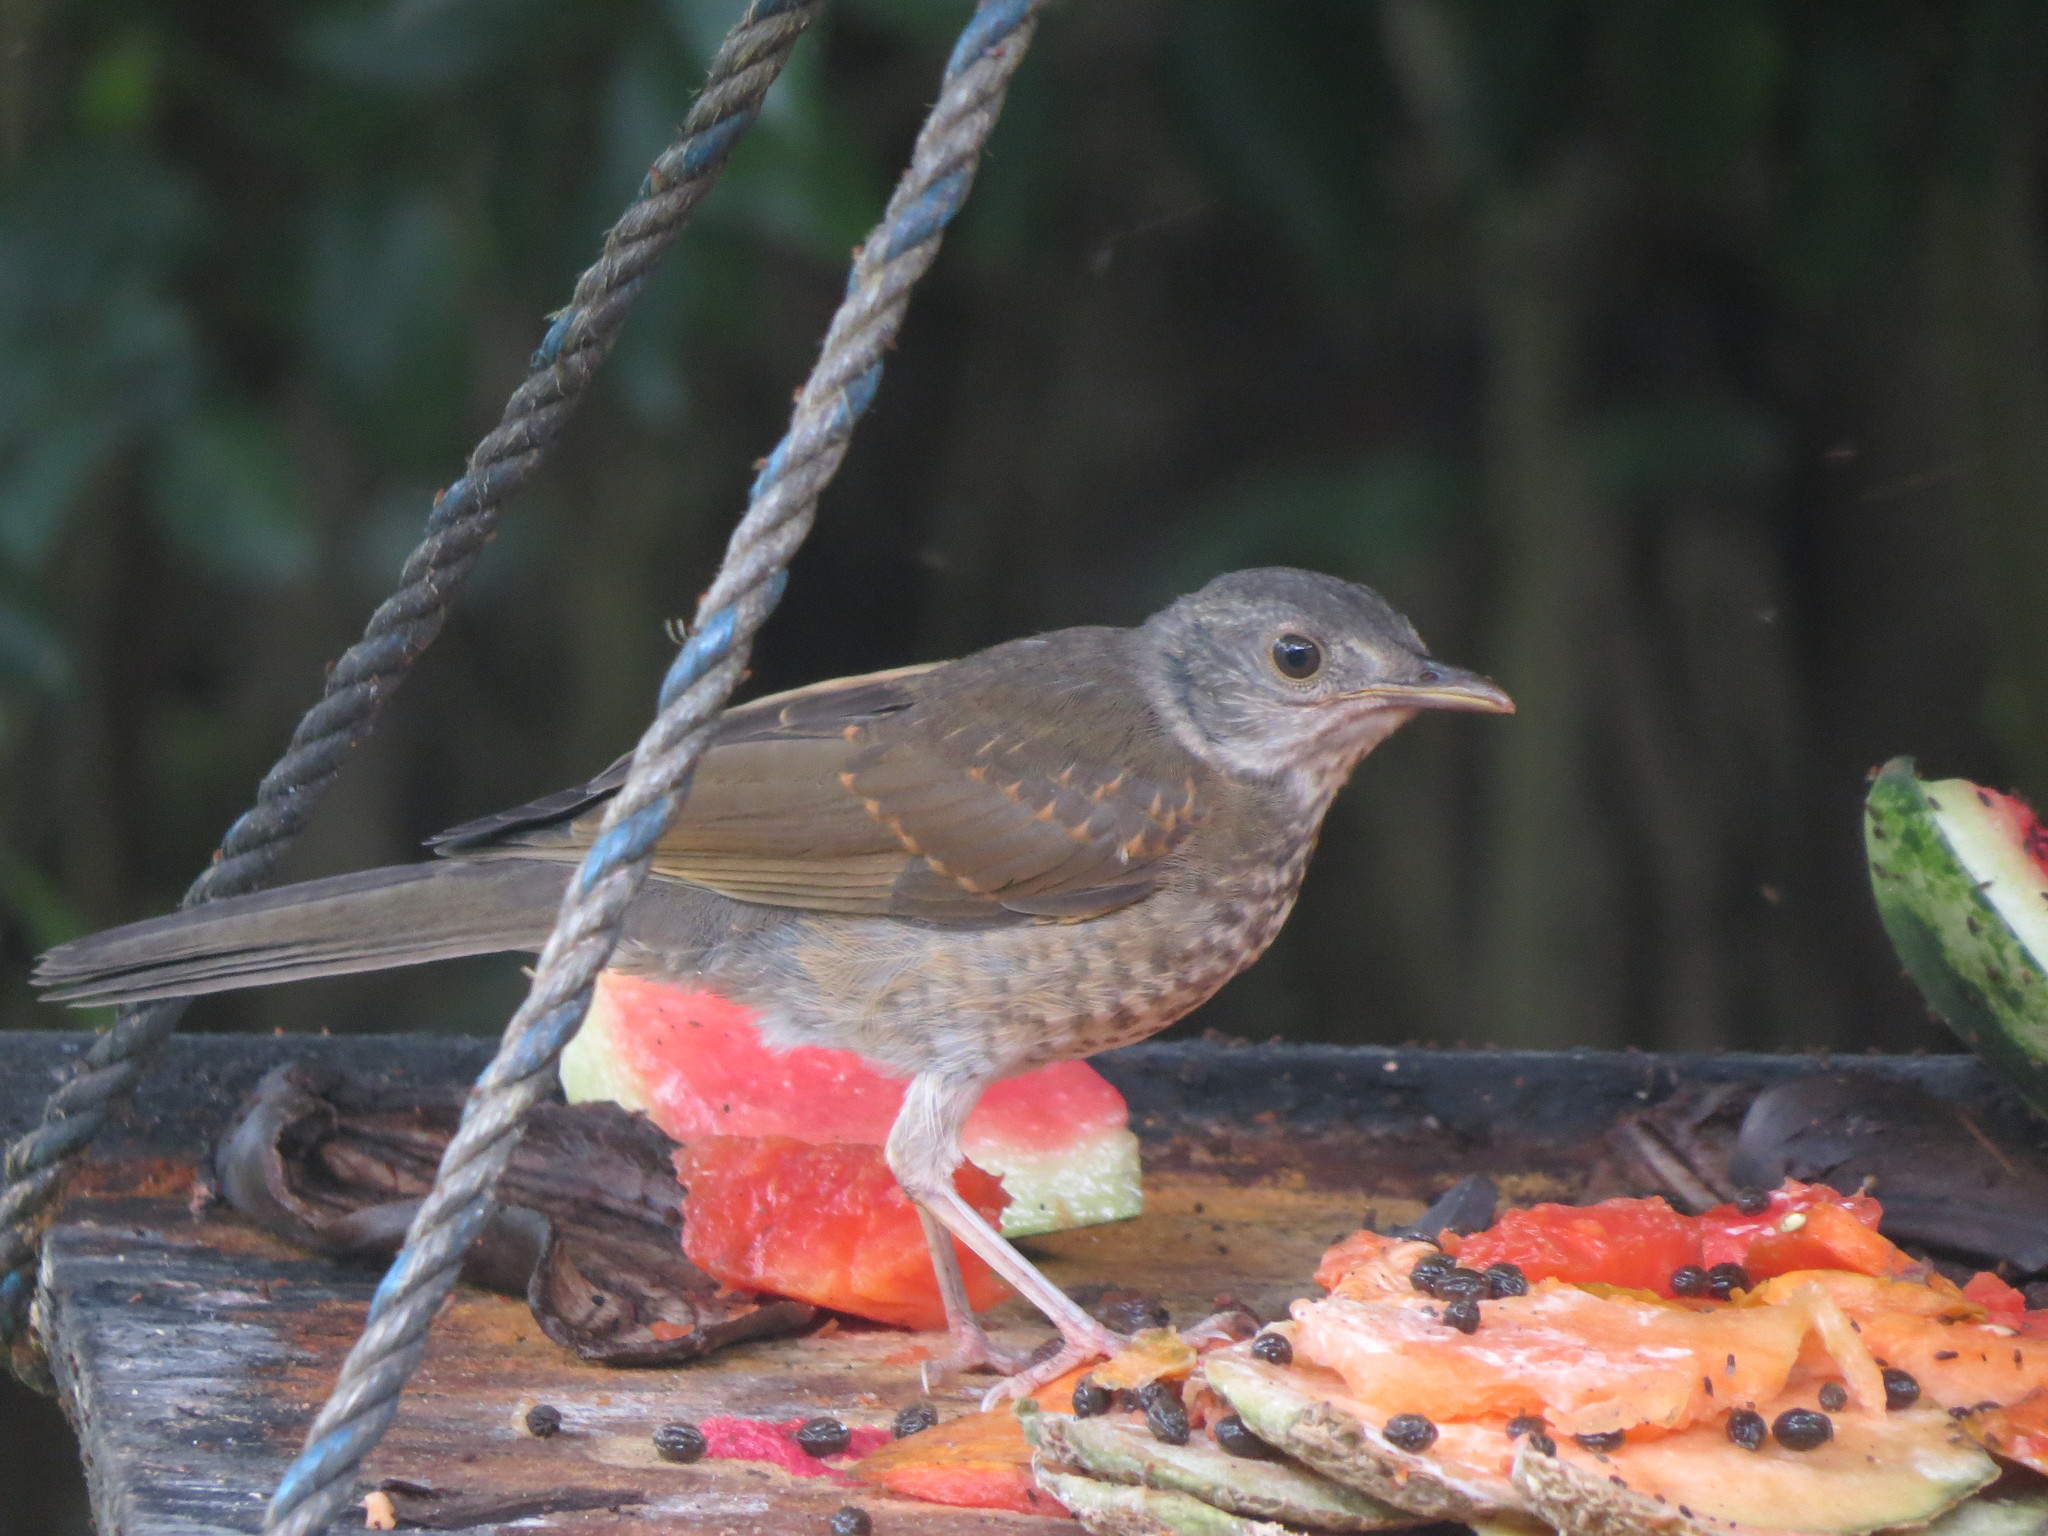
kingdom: Animalia
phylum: Chordata
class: Aves
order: Passeriformes
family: Turdidae
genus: Turdus
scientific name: Turdus leucomelas
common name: Pale-breasted thrush
